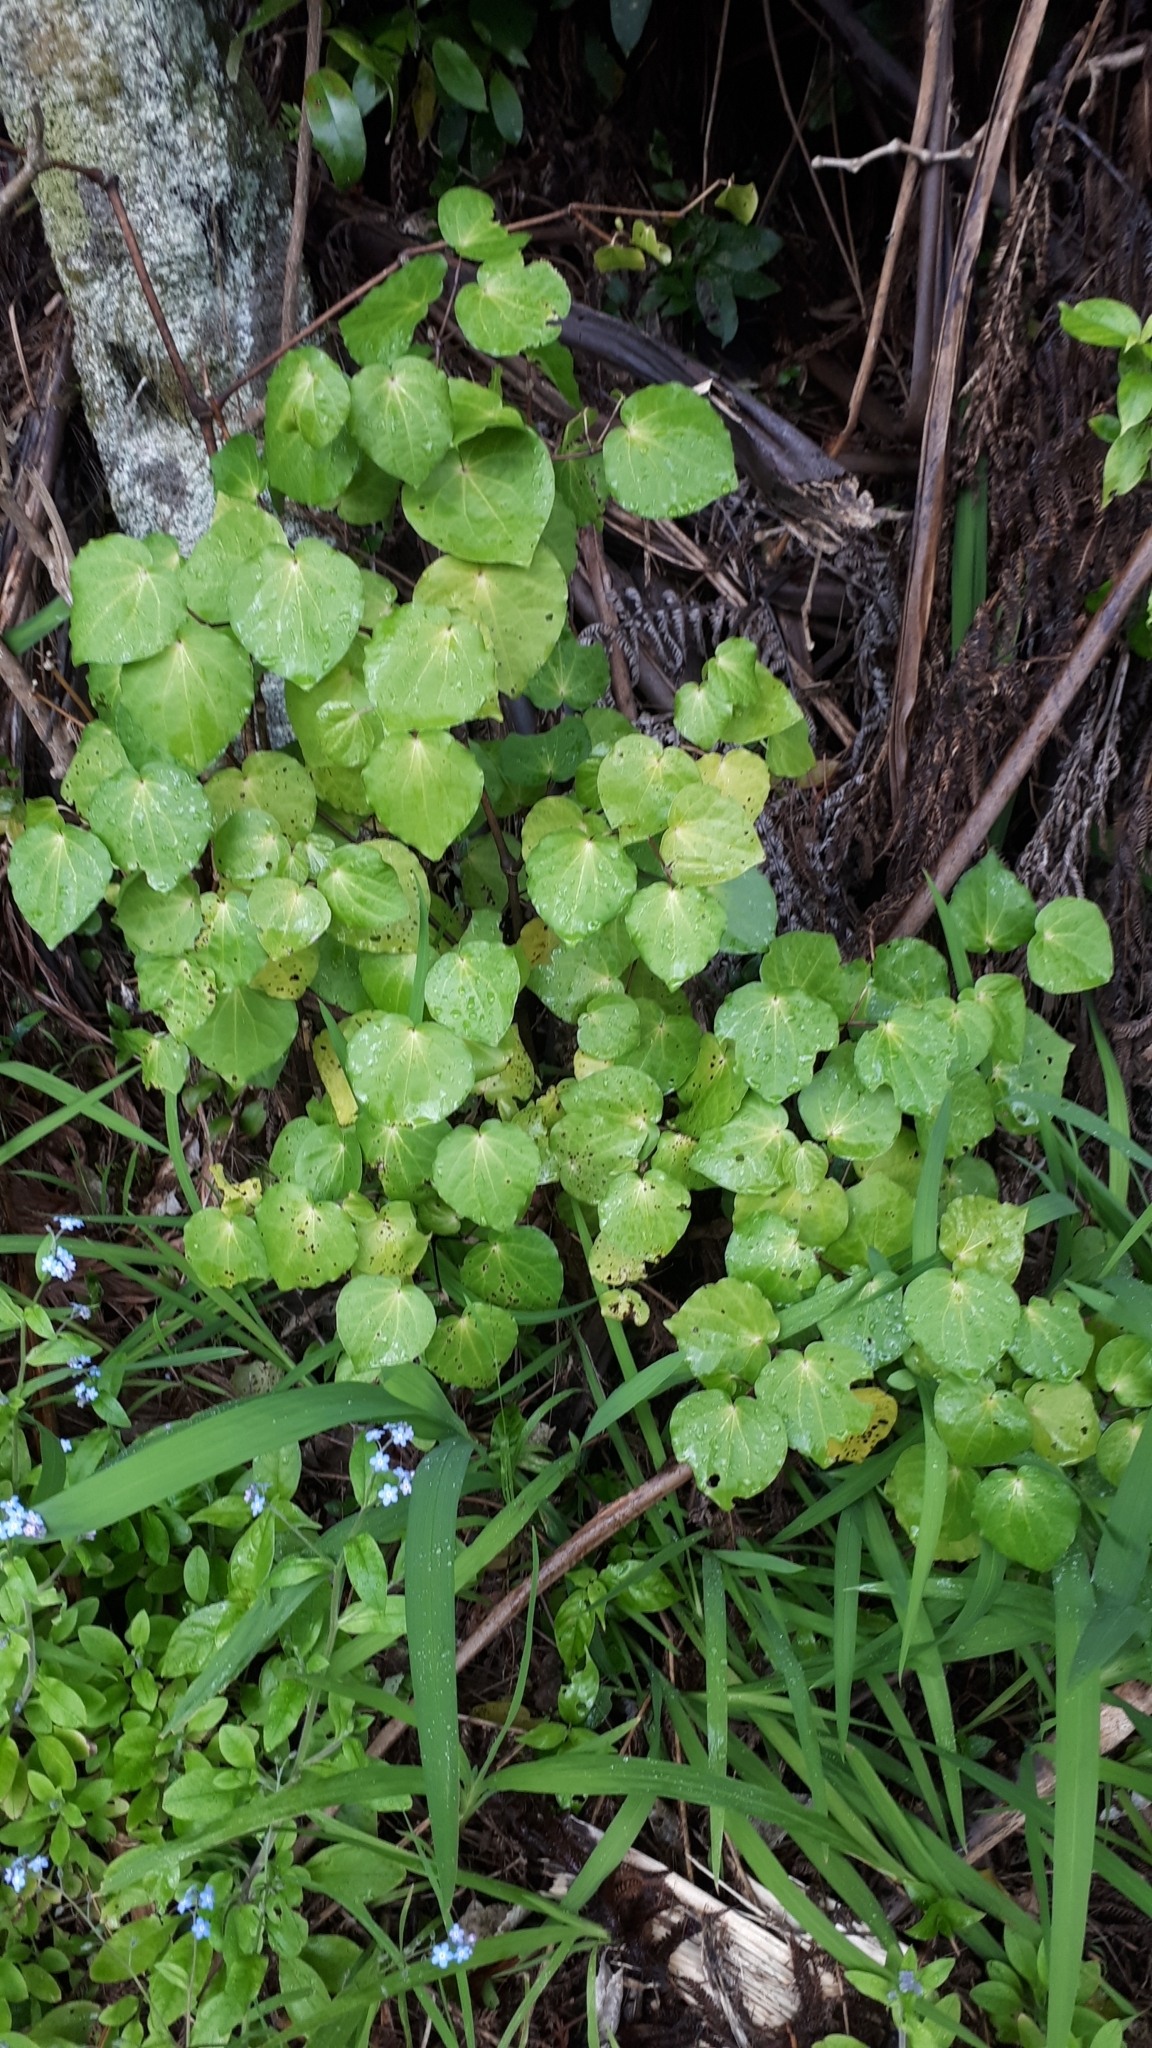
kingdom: Plantae
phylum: Tracheophyta
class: Magnoliopsida
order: Piperales
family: Piperaceae
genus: Macropiper
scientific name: Macropiper excelsum
